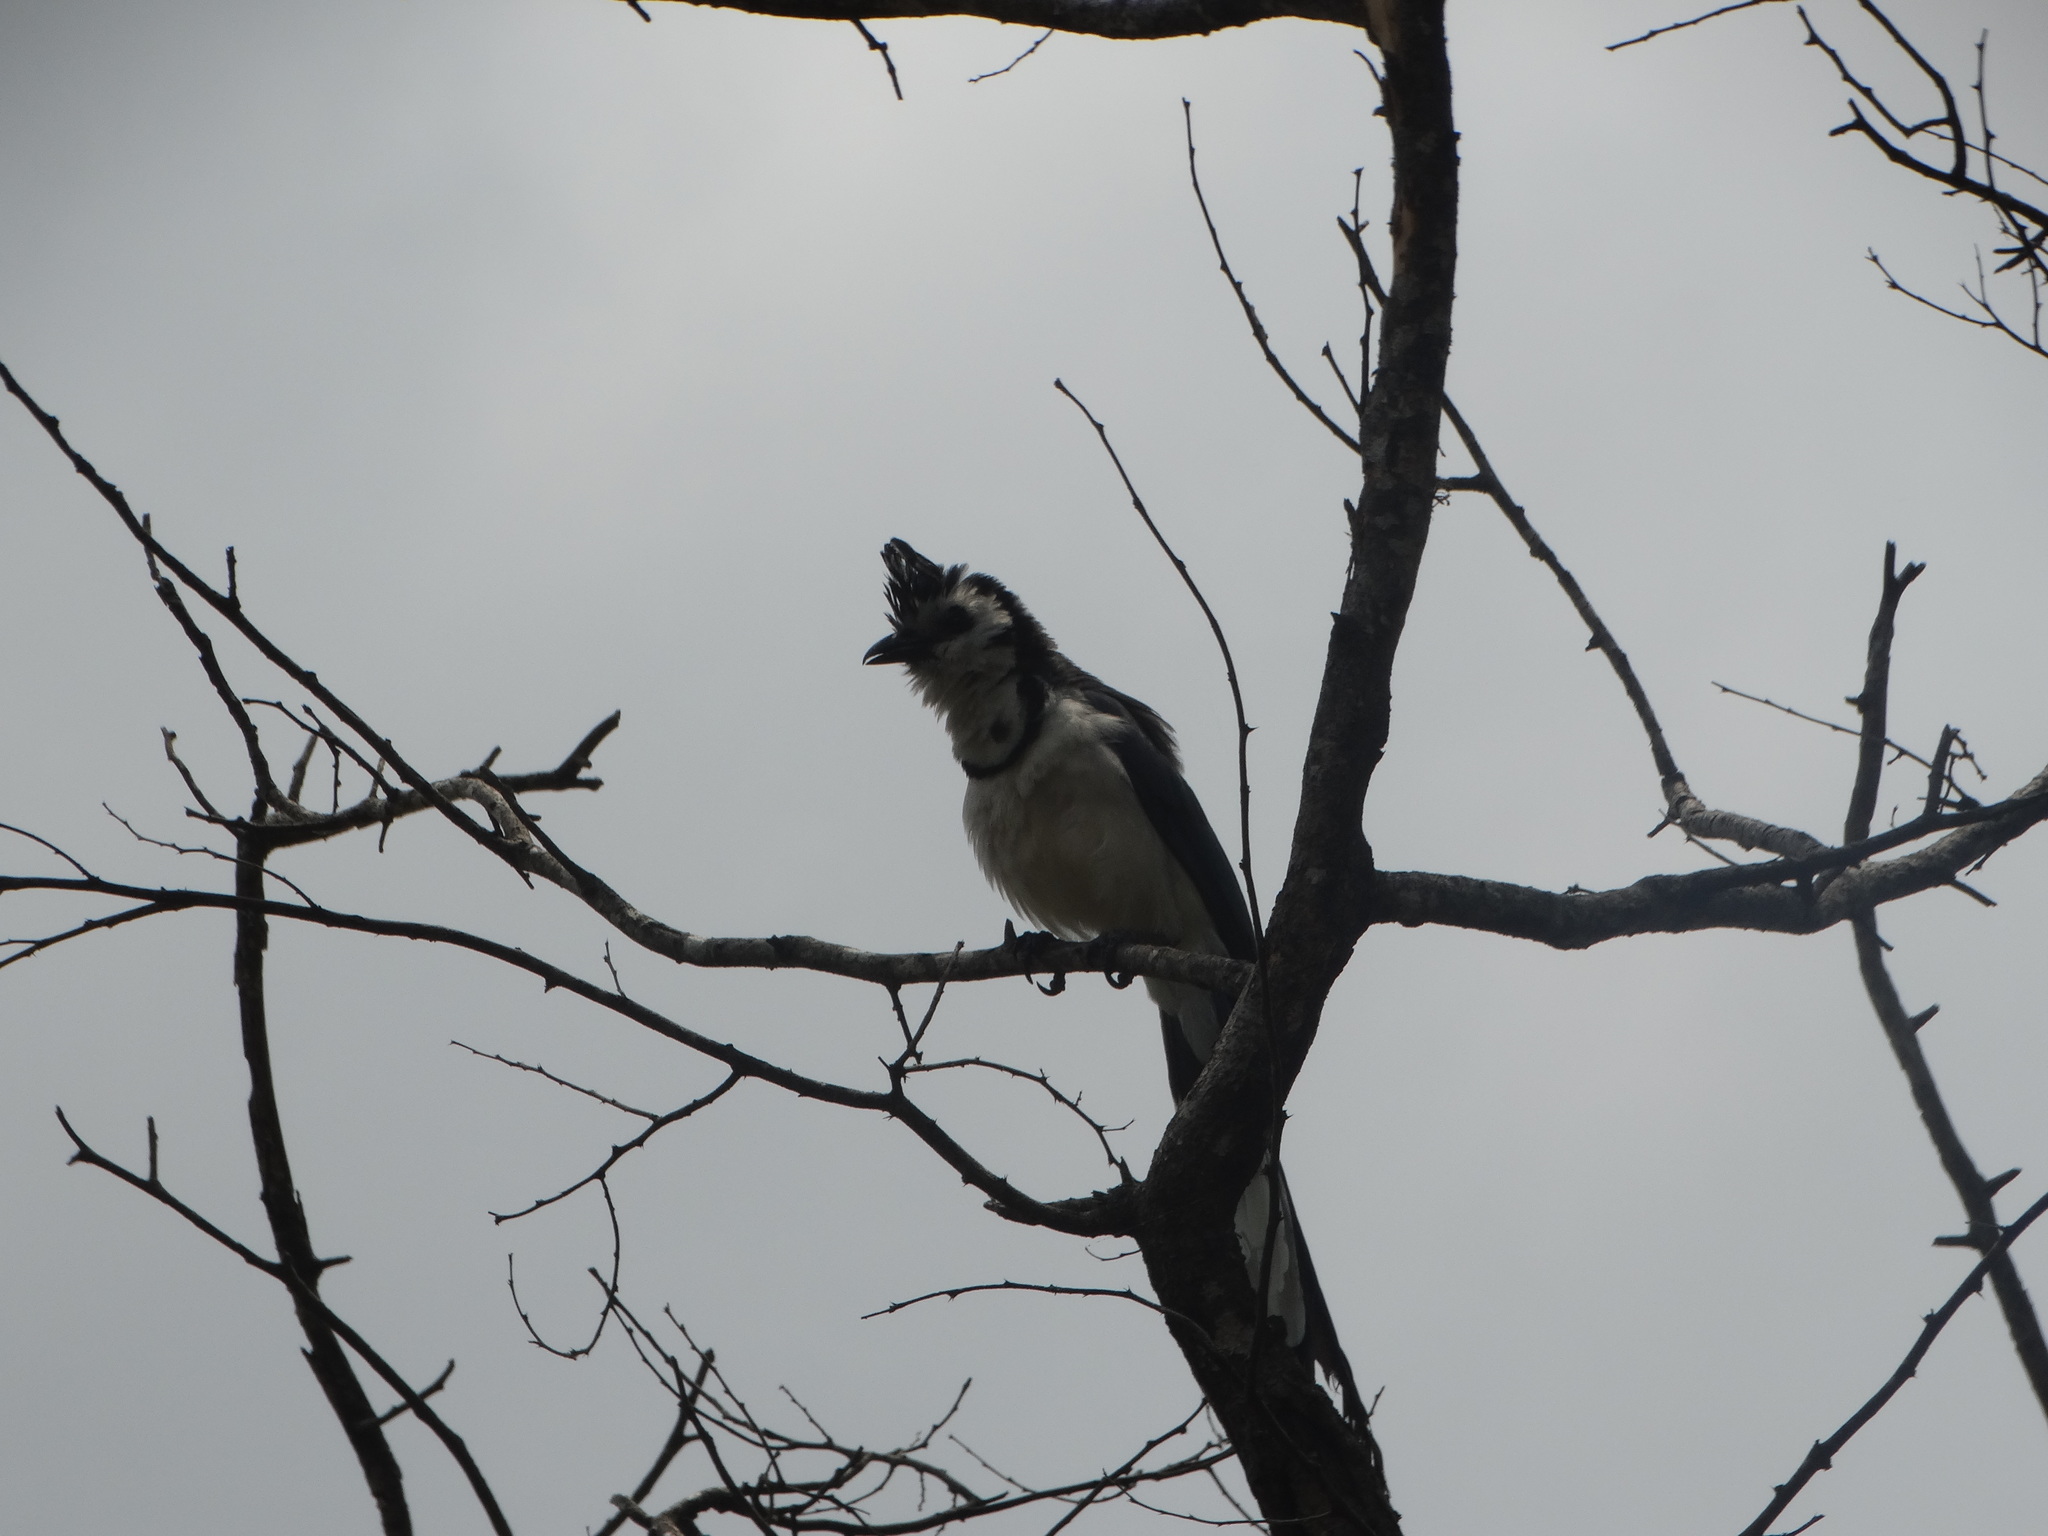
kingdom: Animalia
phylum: Chordata
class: Aves
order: Passeriformes
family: Corvidae
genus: Calocitta
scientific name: Calocitta formosa
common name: White-throated magpie-jay
